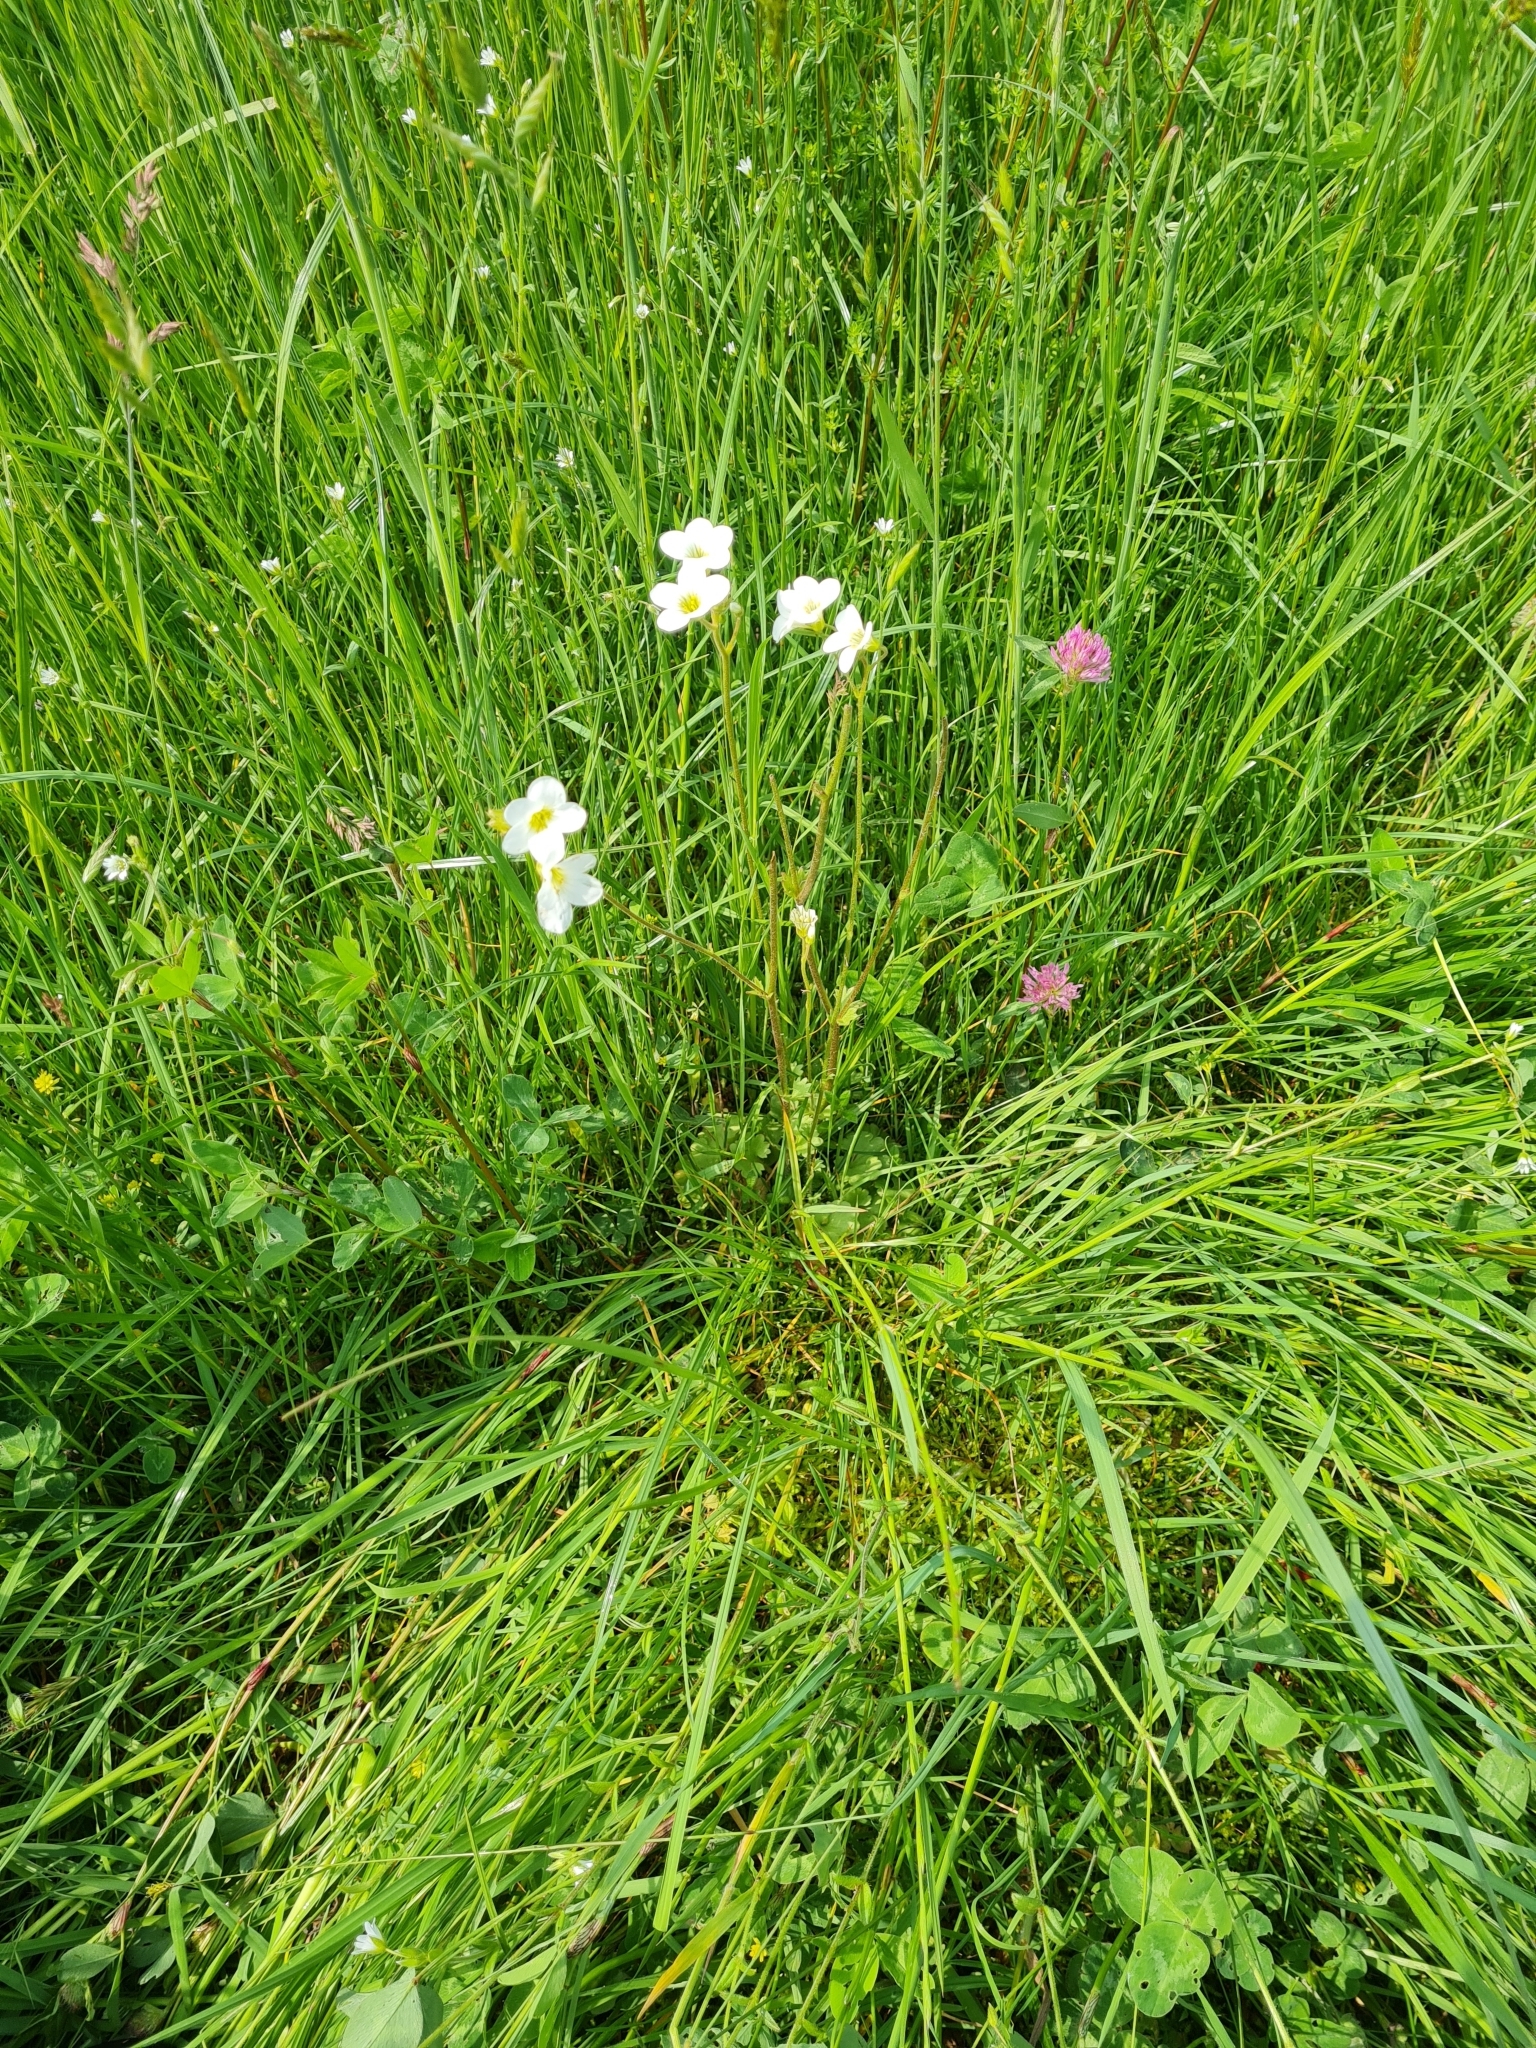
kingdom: Plantae
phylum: Tracheophyta
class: Magnoliopsida
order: Saxifragales
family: Saxifragaceae
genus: Saxifraga
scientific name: Saxifraga granulata
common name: Meadow saxifrage
